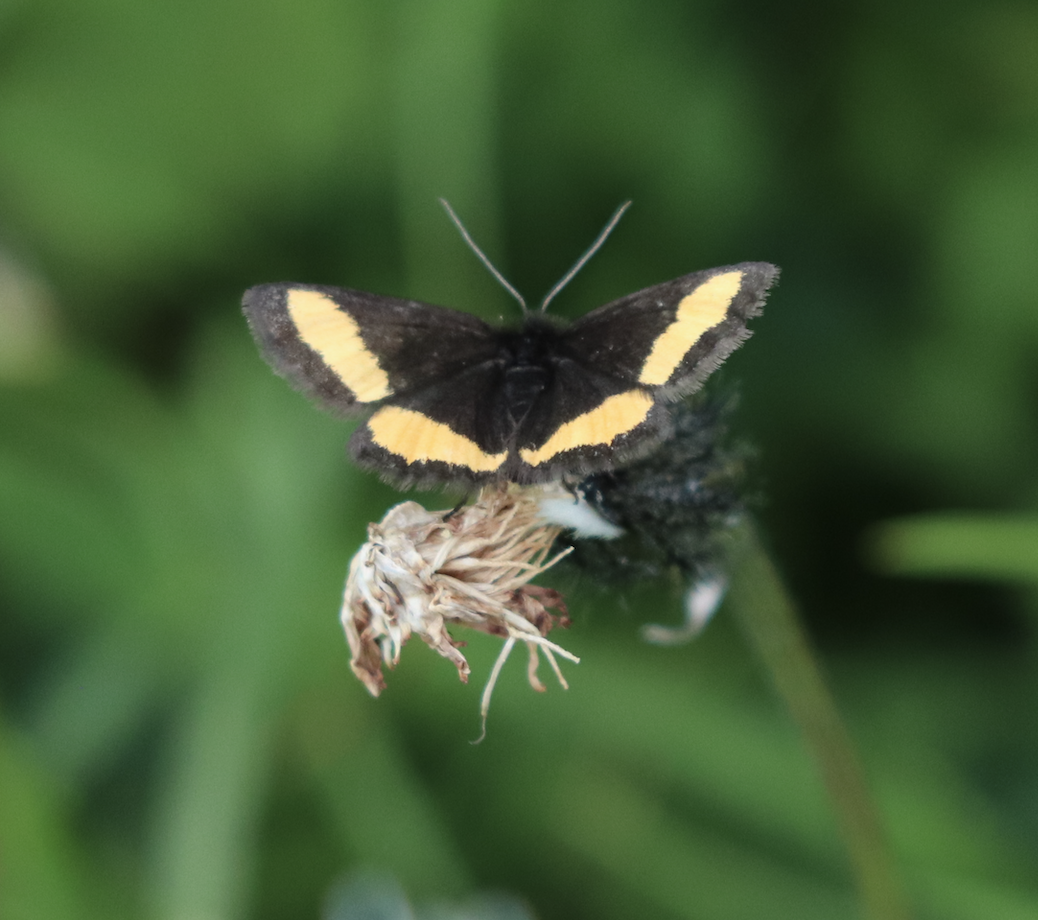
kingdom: Animalia
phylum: Arthropoda
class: Insecta
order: Lepidoptera
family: Geometridae
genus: Psodos
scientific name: Psodos quadrifaria
